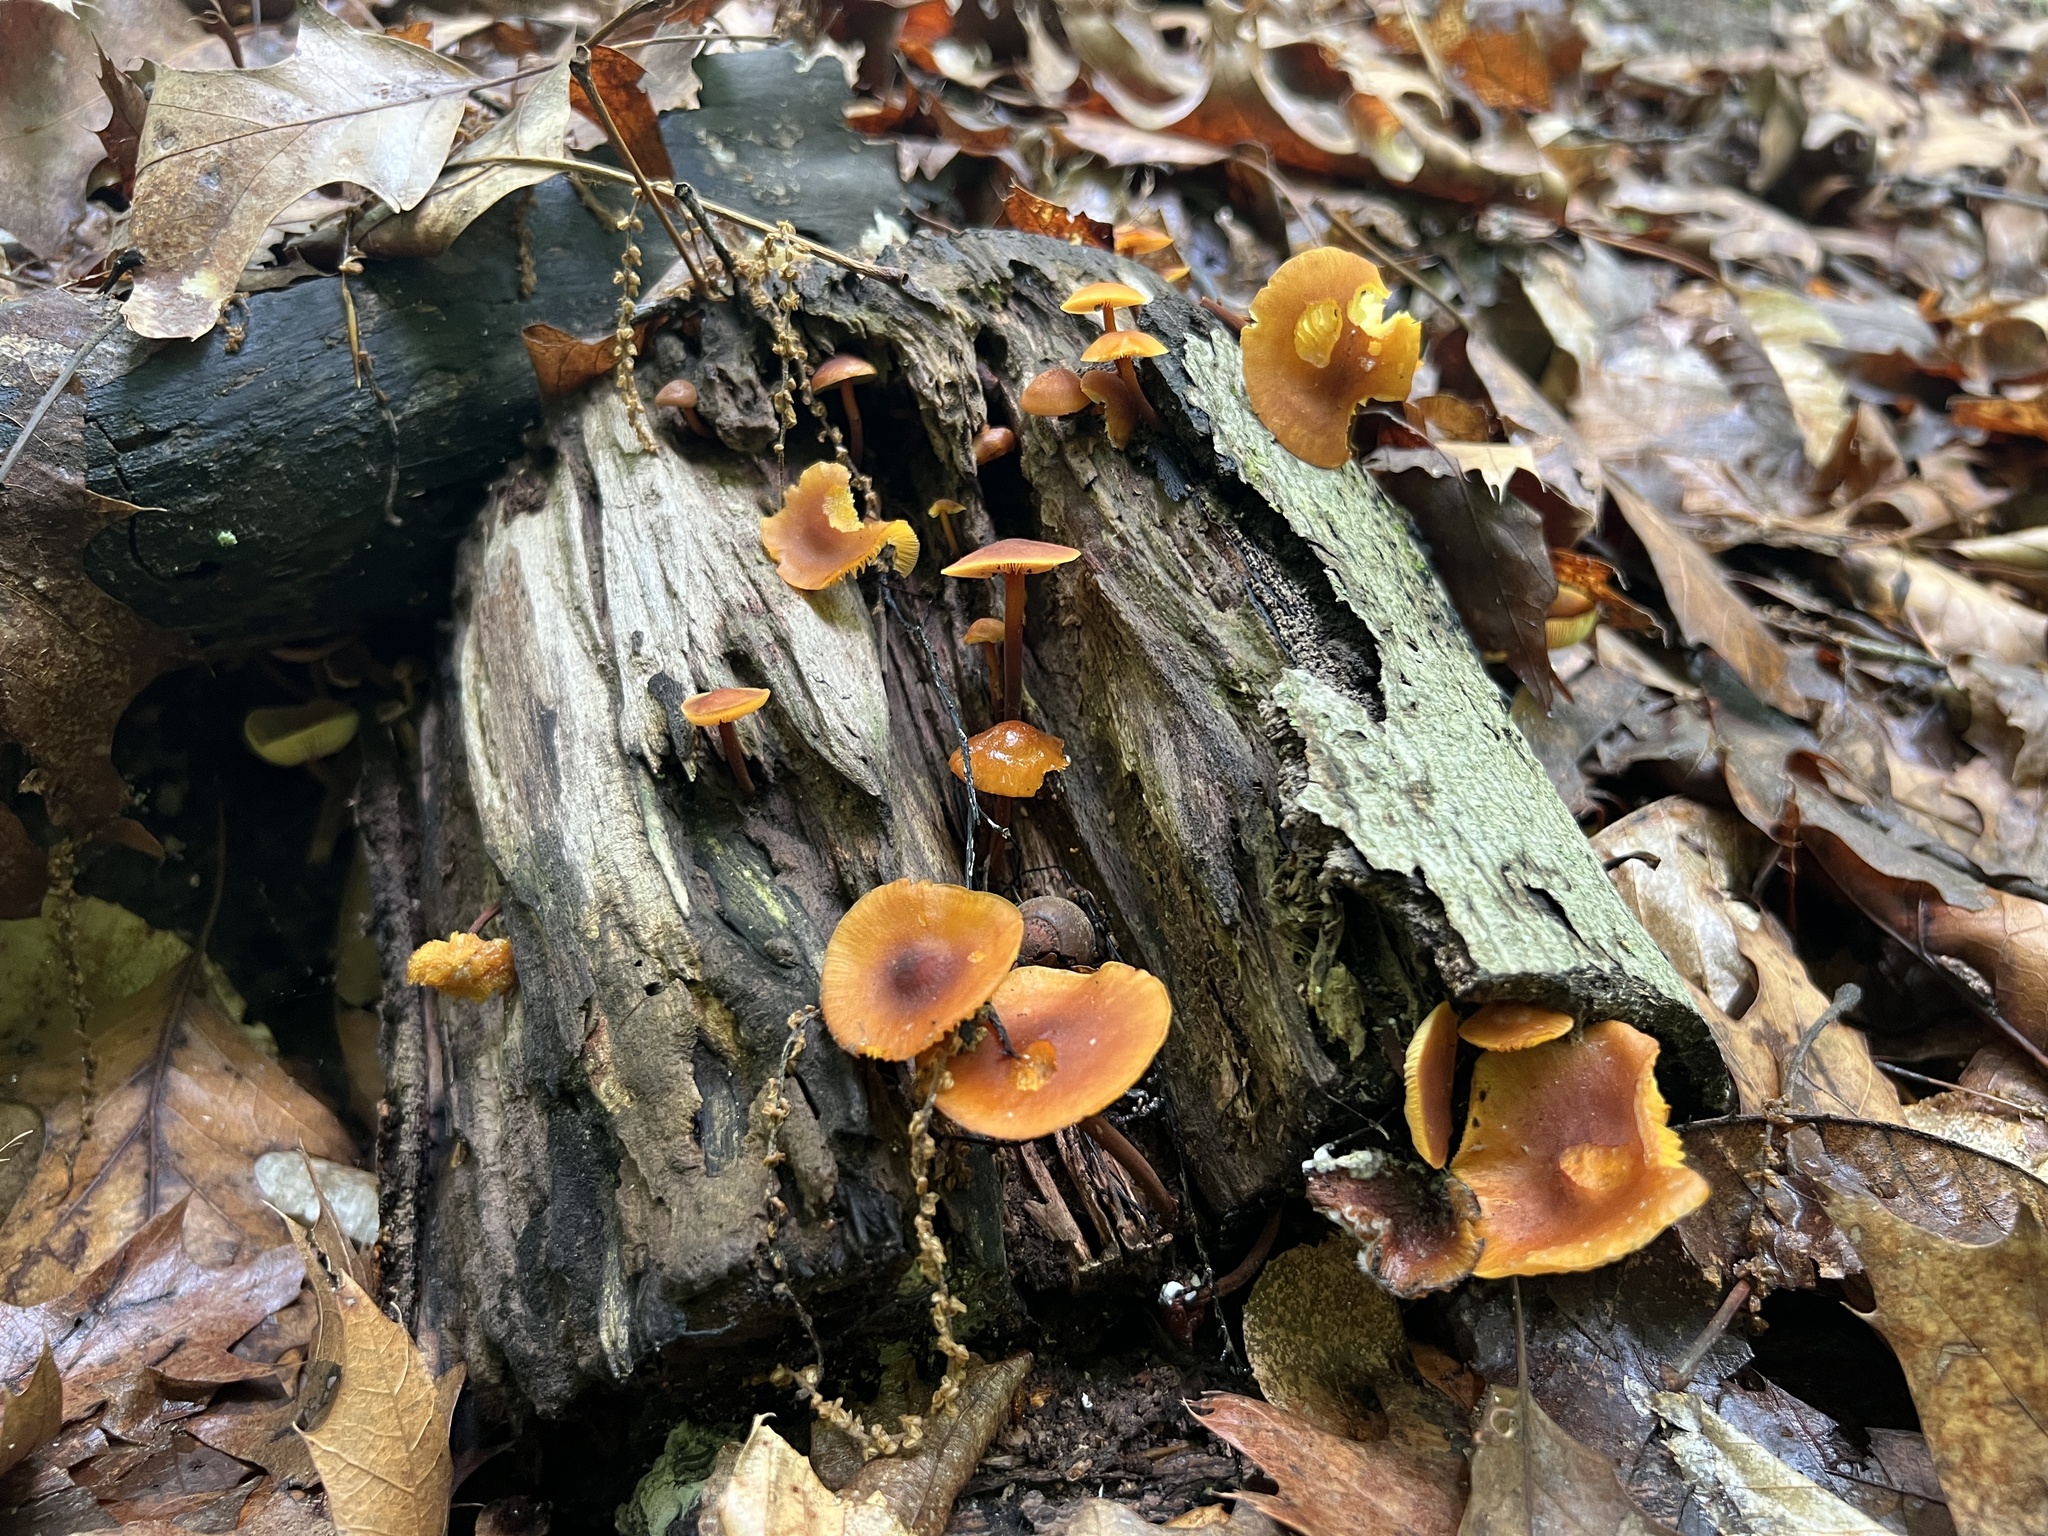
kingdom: Fungi
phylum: Basidiomycota
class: Agaricomycetes
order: Agaricales
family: Mycenaceae
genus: Xeromphalina
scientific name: Xeromphalina tenuipes
